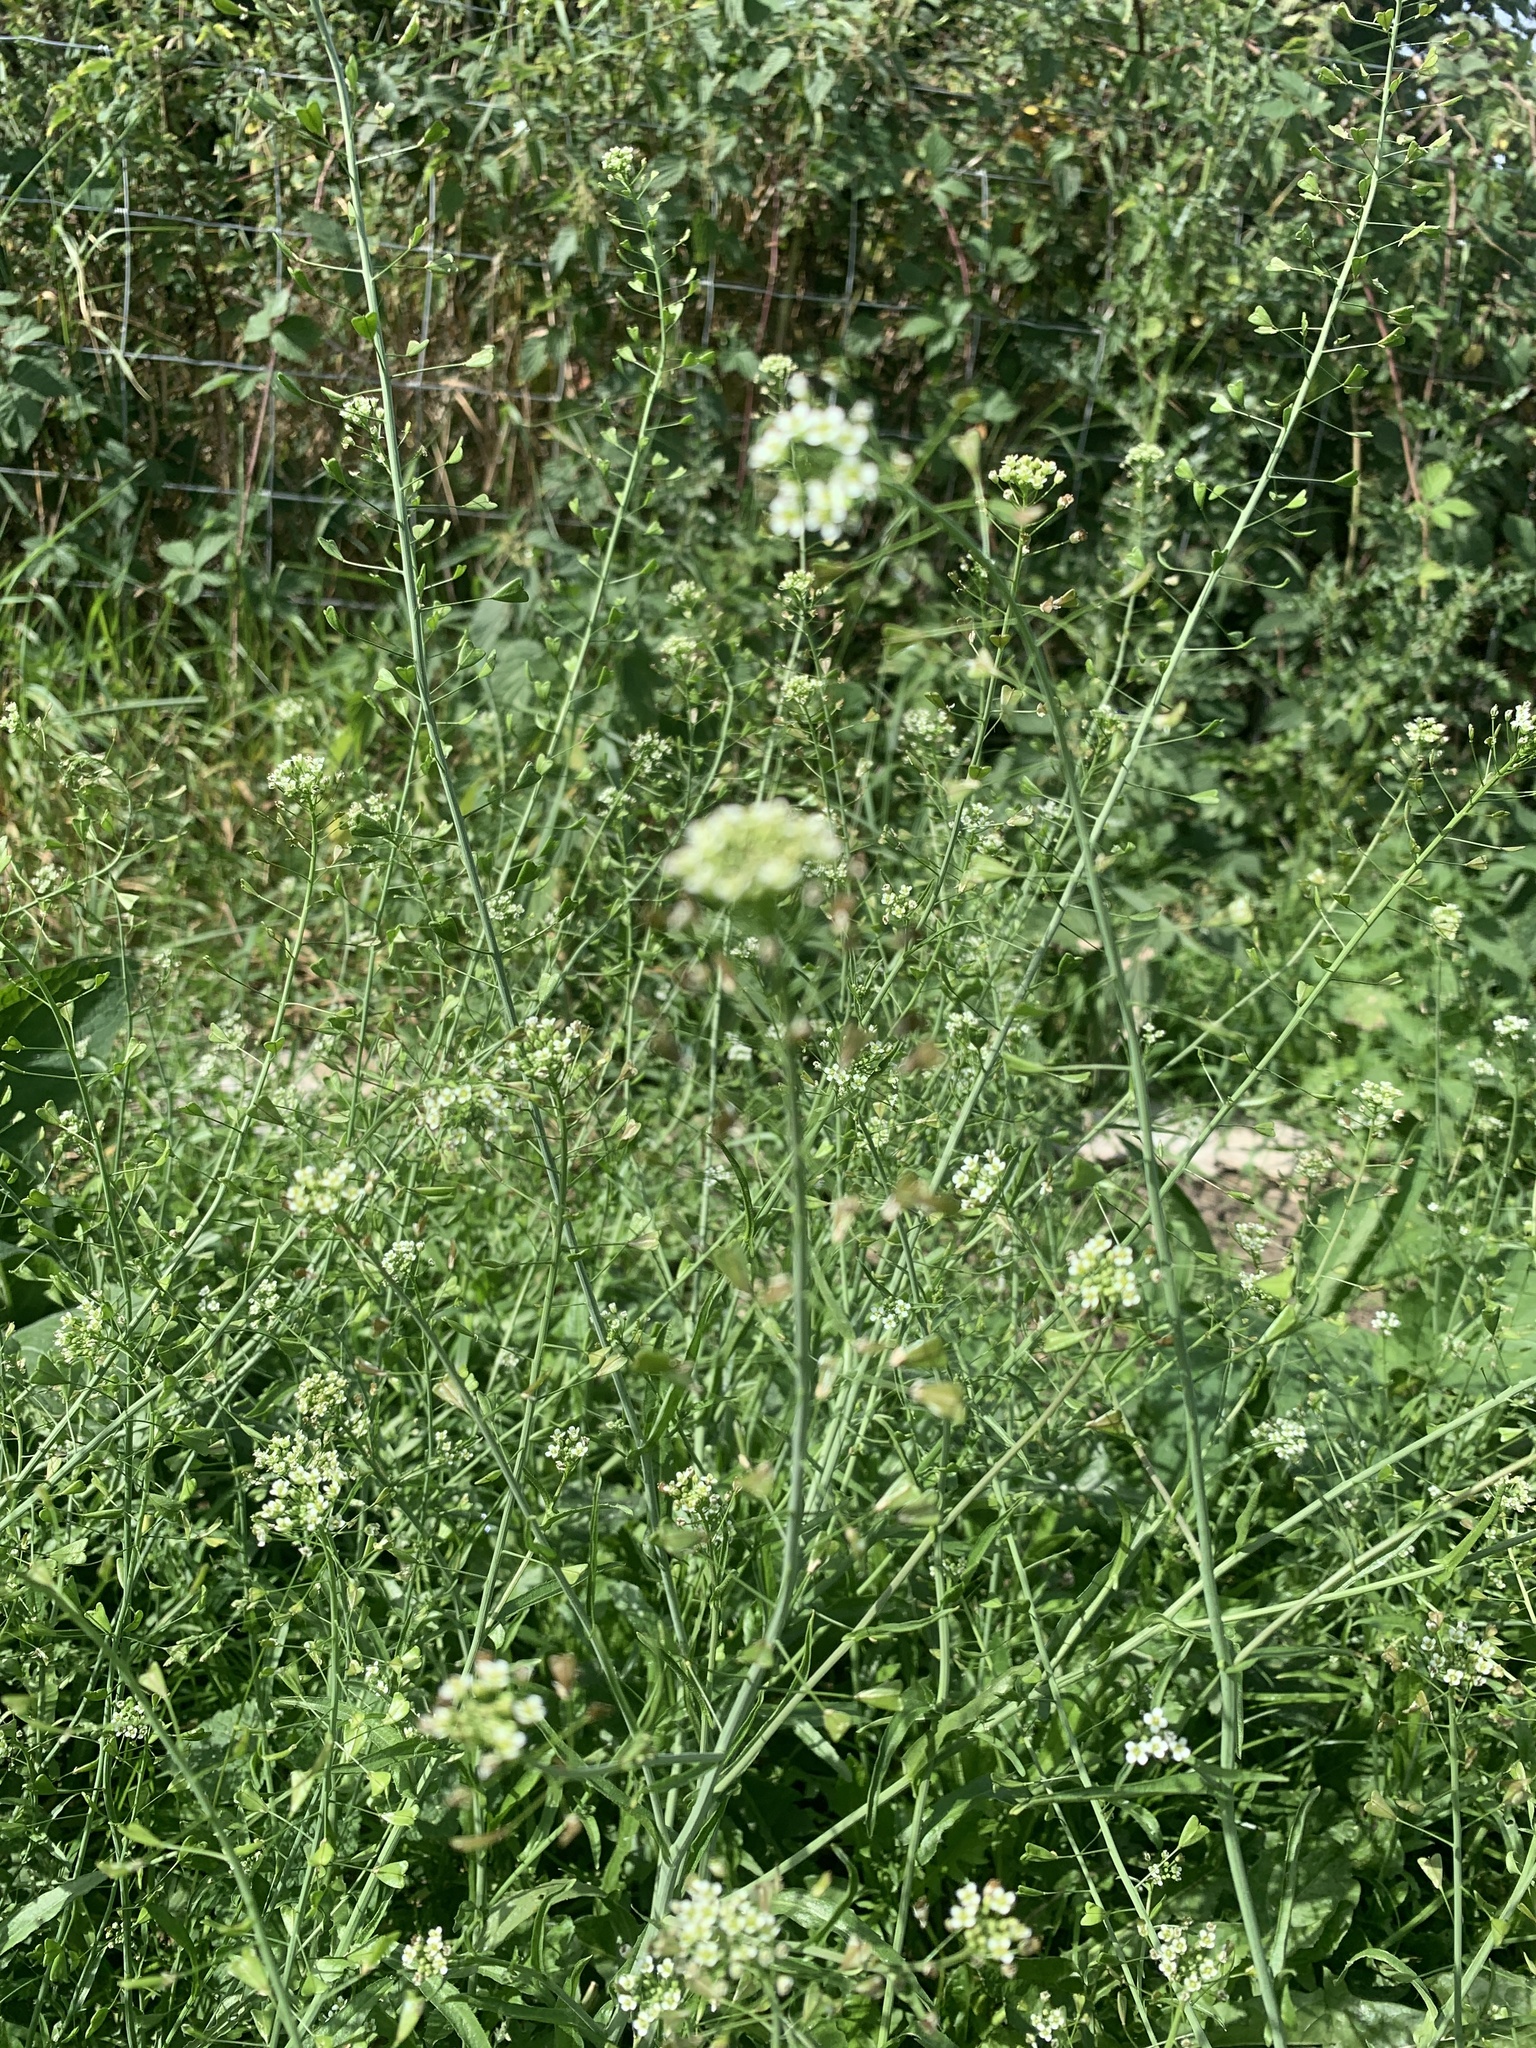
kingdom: Plantae
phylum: Tracheophyta
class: Magnoliopsida
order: Brassicales
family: Brassicaceae
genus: Capsella
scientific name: Capsella bursa-pastoris
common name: Shepherd's purse
